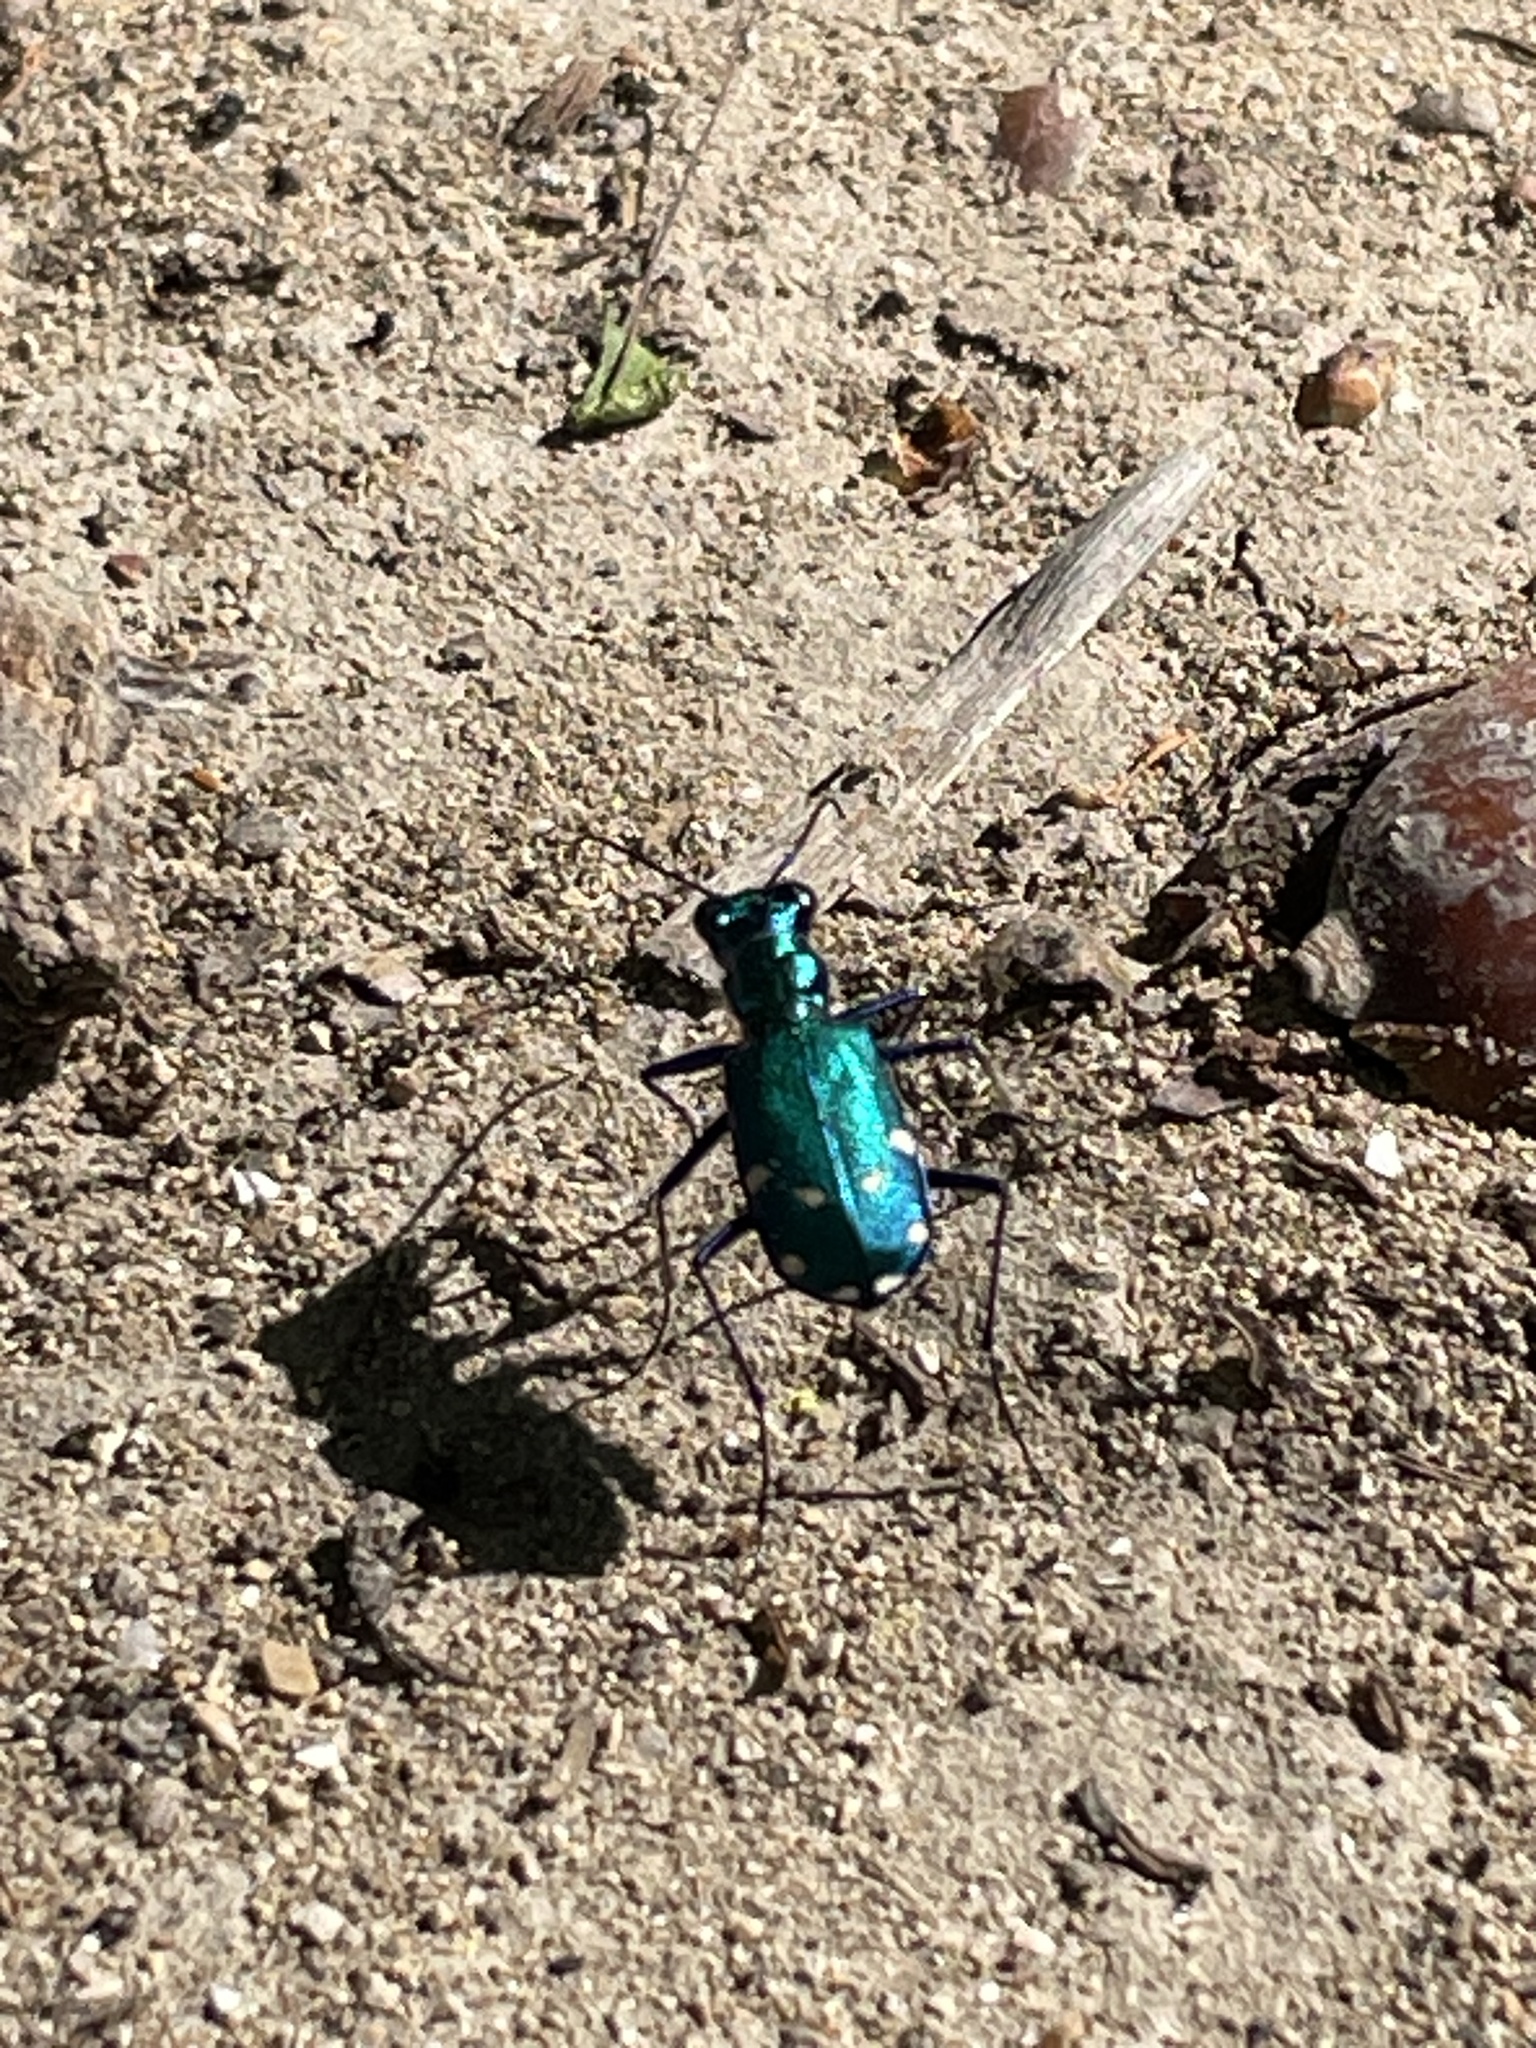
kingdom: Animalia
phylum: Arthropoda
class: Insecta
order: Coleoptera
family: Carabidae
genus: Cicindela
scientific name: Cicindela sexguttata
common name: Six-spotted tiger beetle
